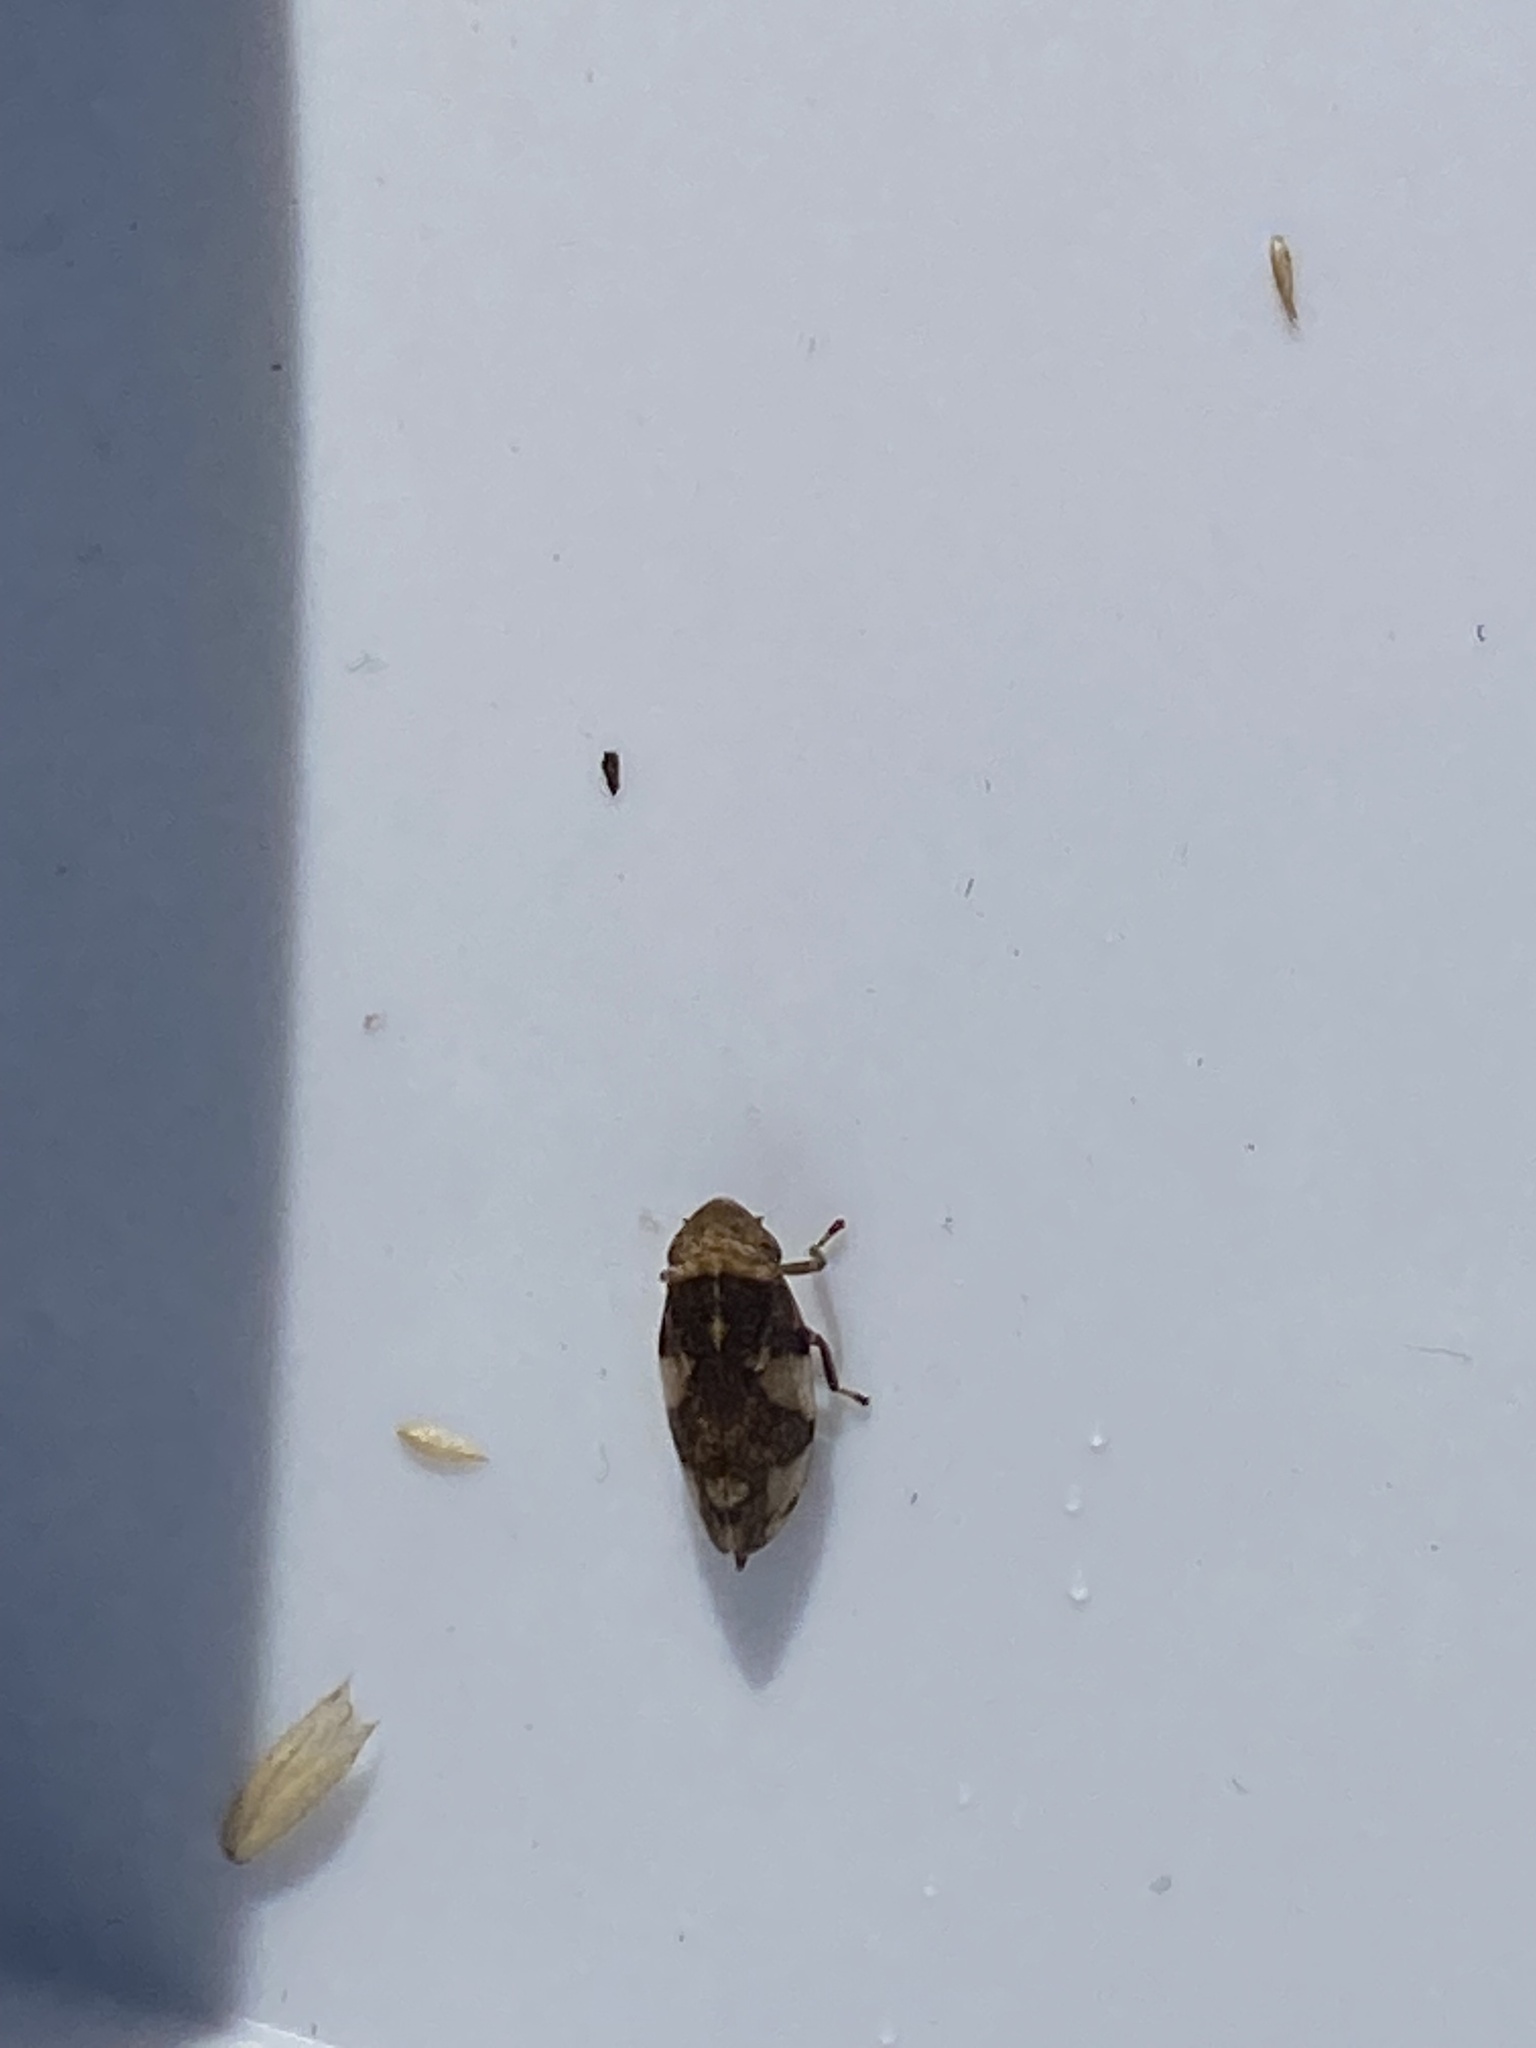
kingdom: Animalia
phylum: Arthropoda
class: Insecta
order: Hemiptera
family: Aphrophoridae
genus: Philaenus
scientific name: Philaenus spumarius
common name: Meadow spittlebug
